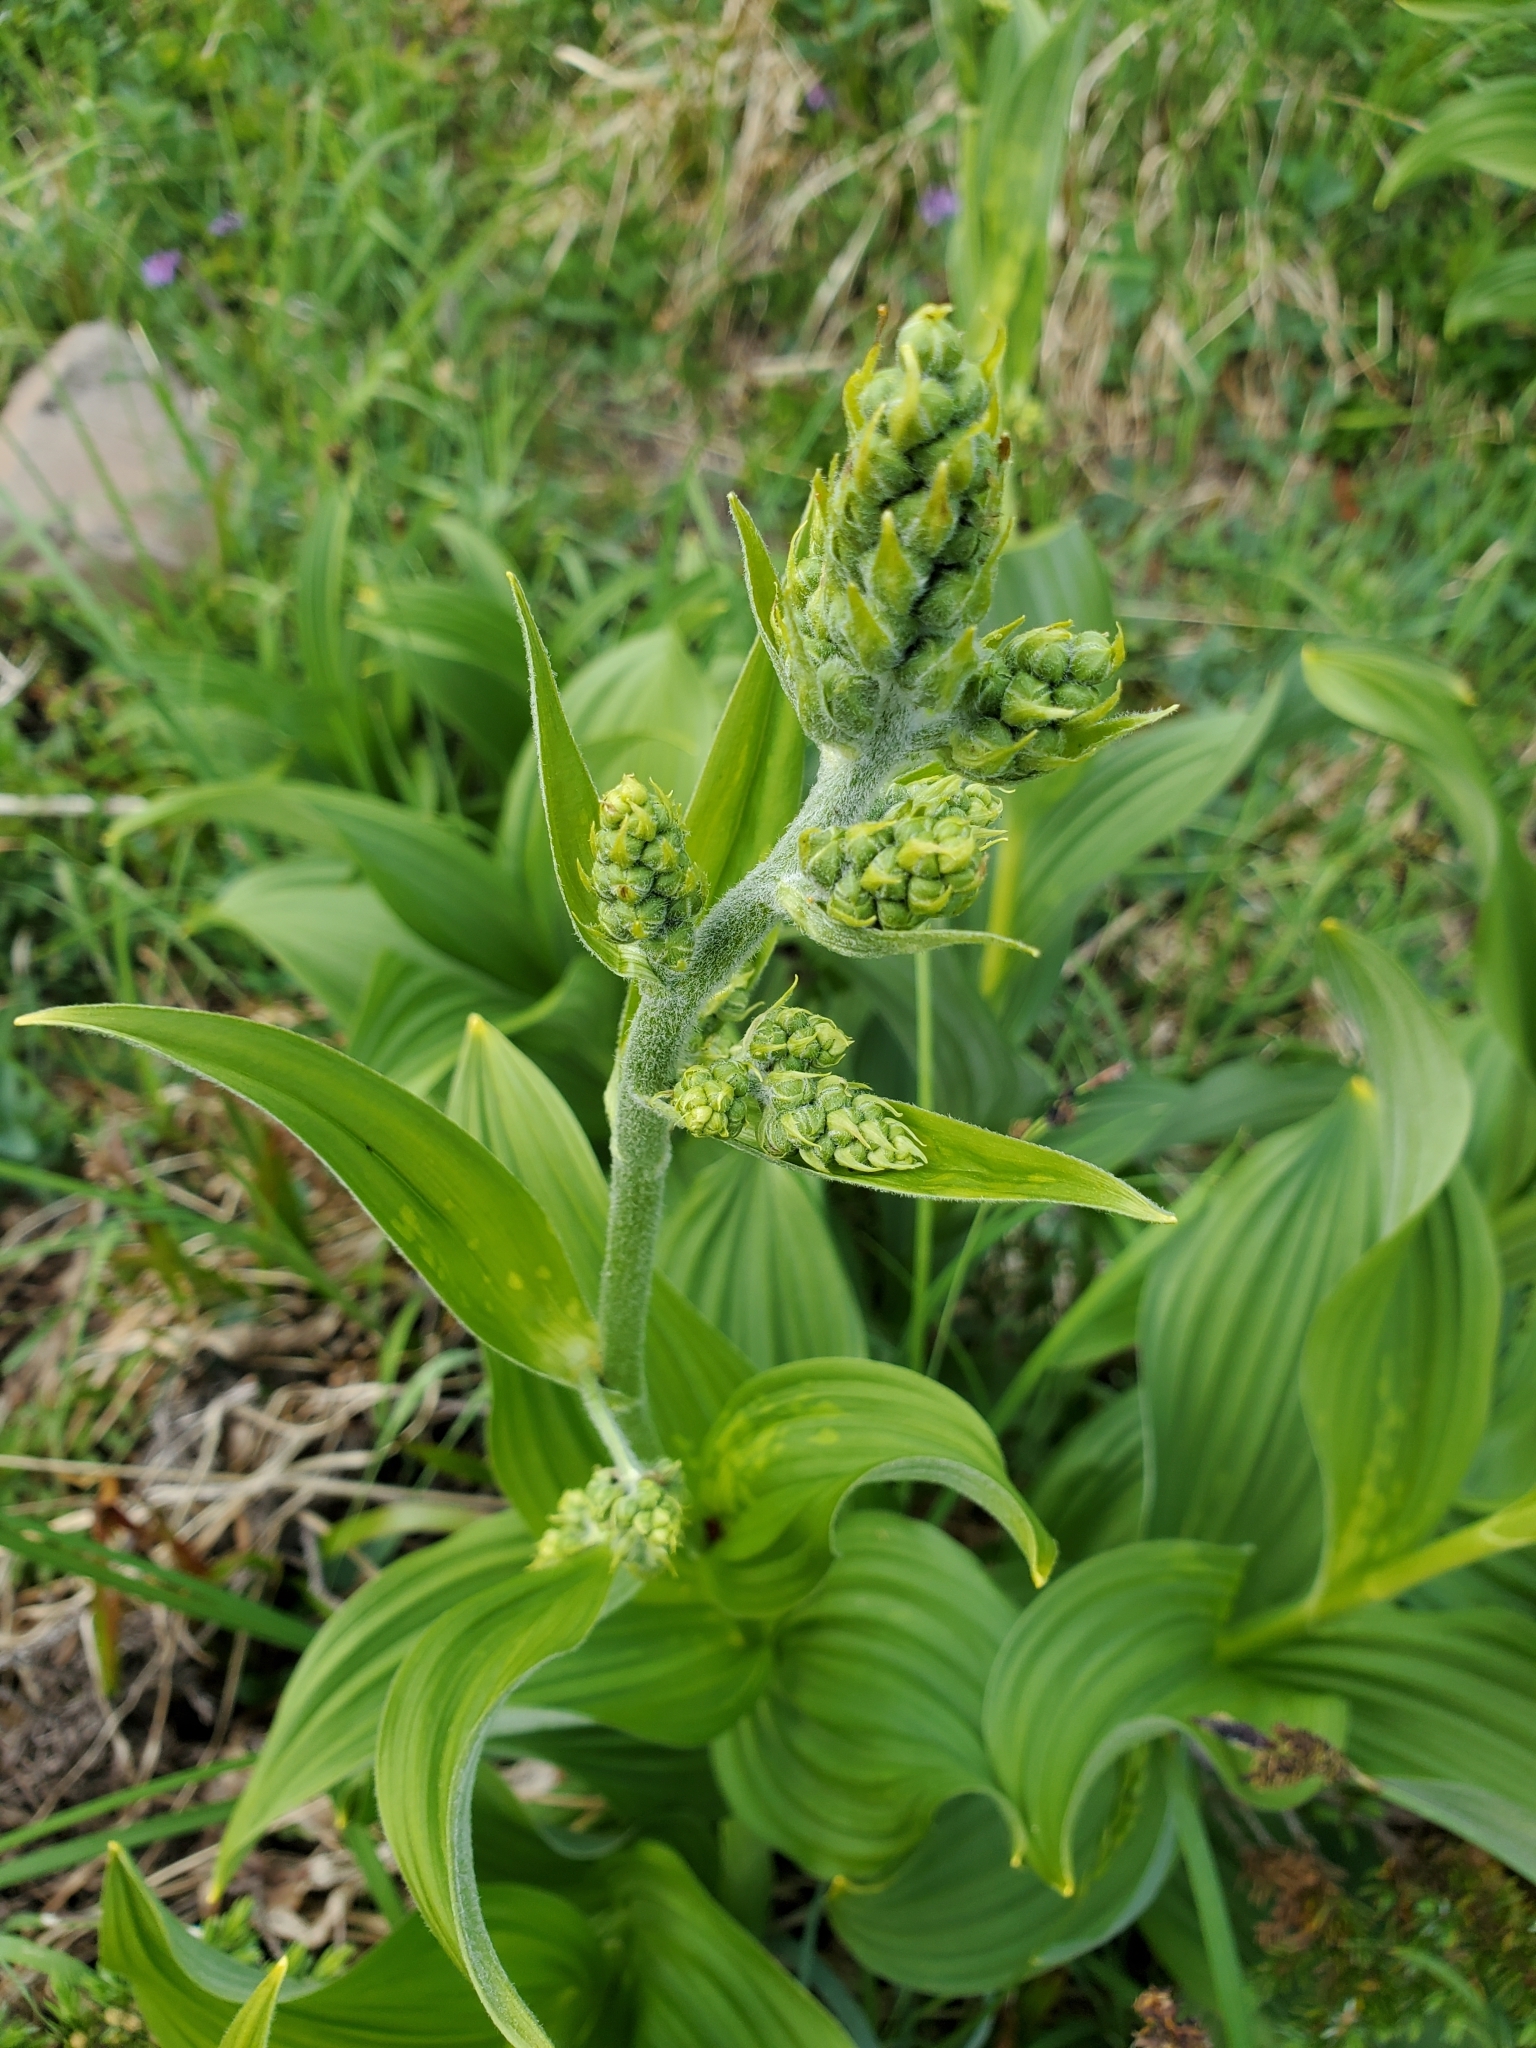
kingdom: Plantae
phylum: Tracheophyta
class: Liliopsida
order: Liliales
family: Melanthiaceae
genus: Veratrum
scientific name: Veratrum viride
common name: American false hellebore
